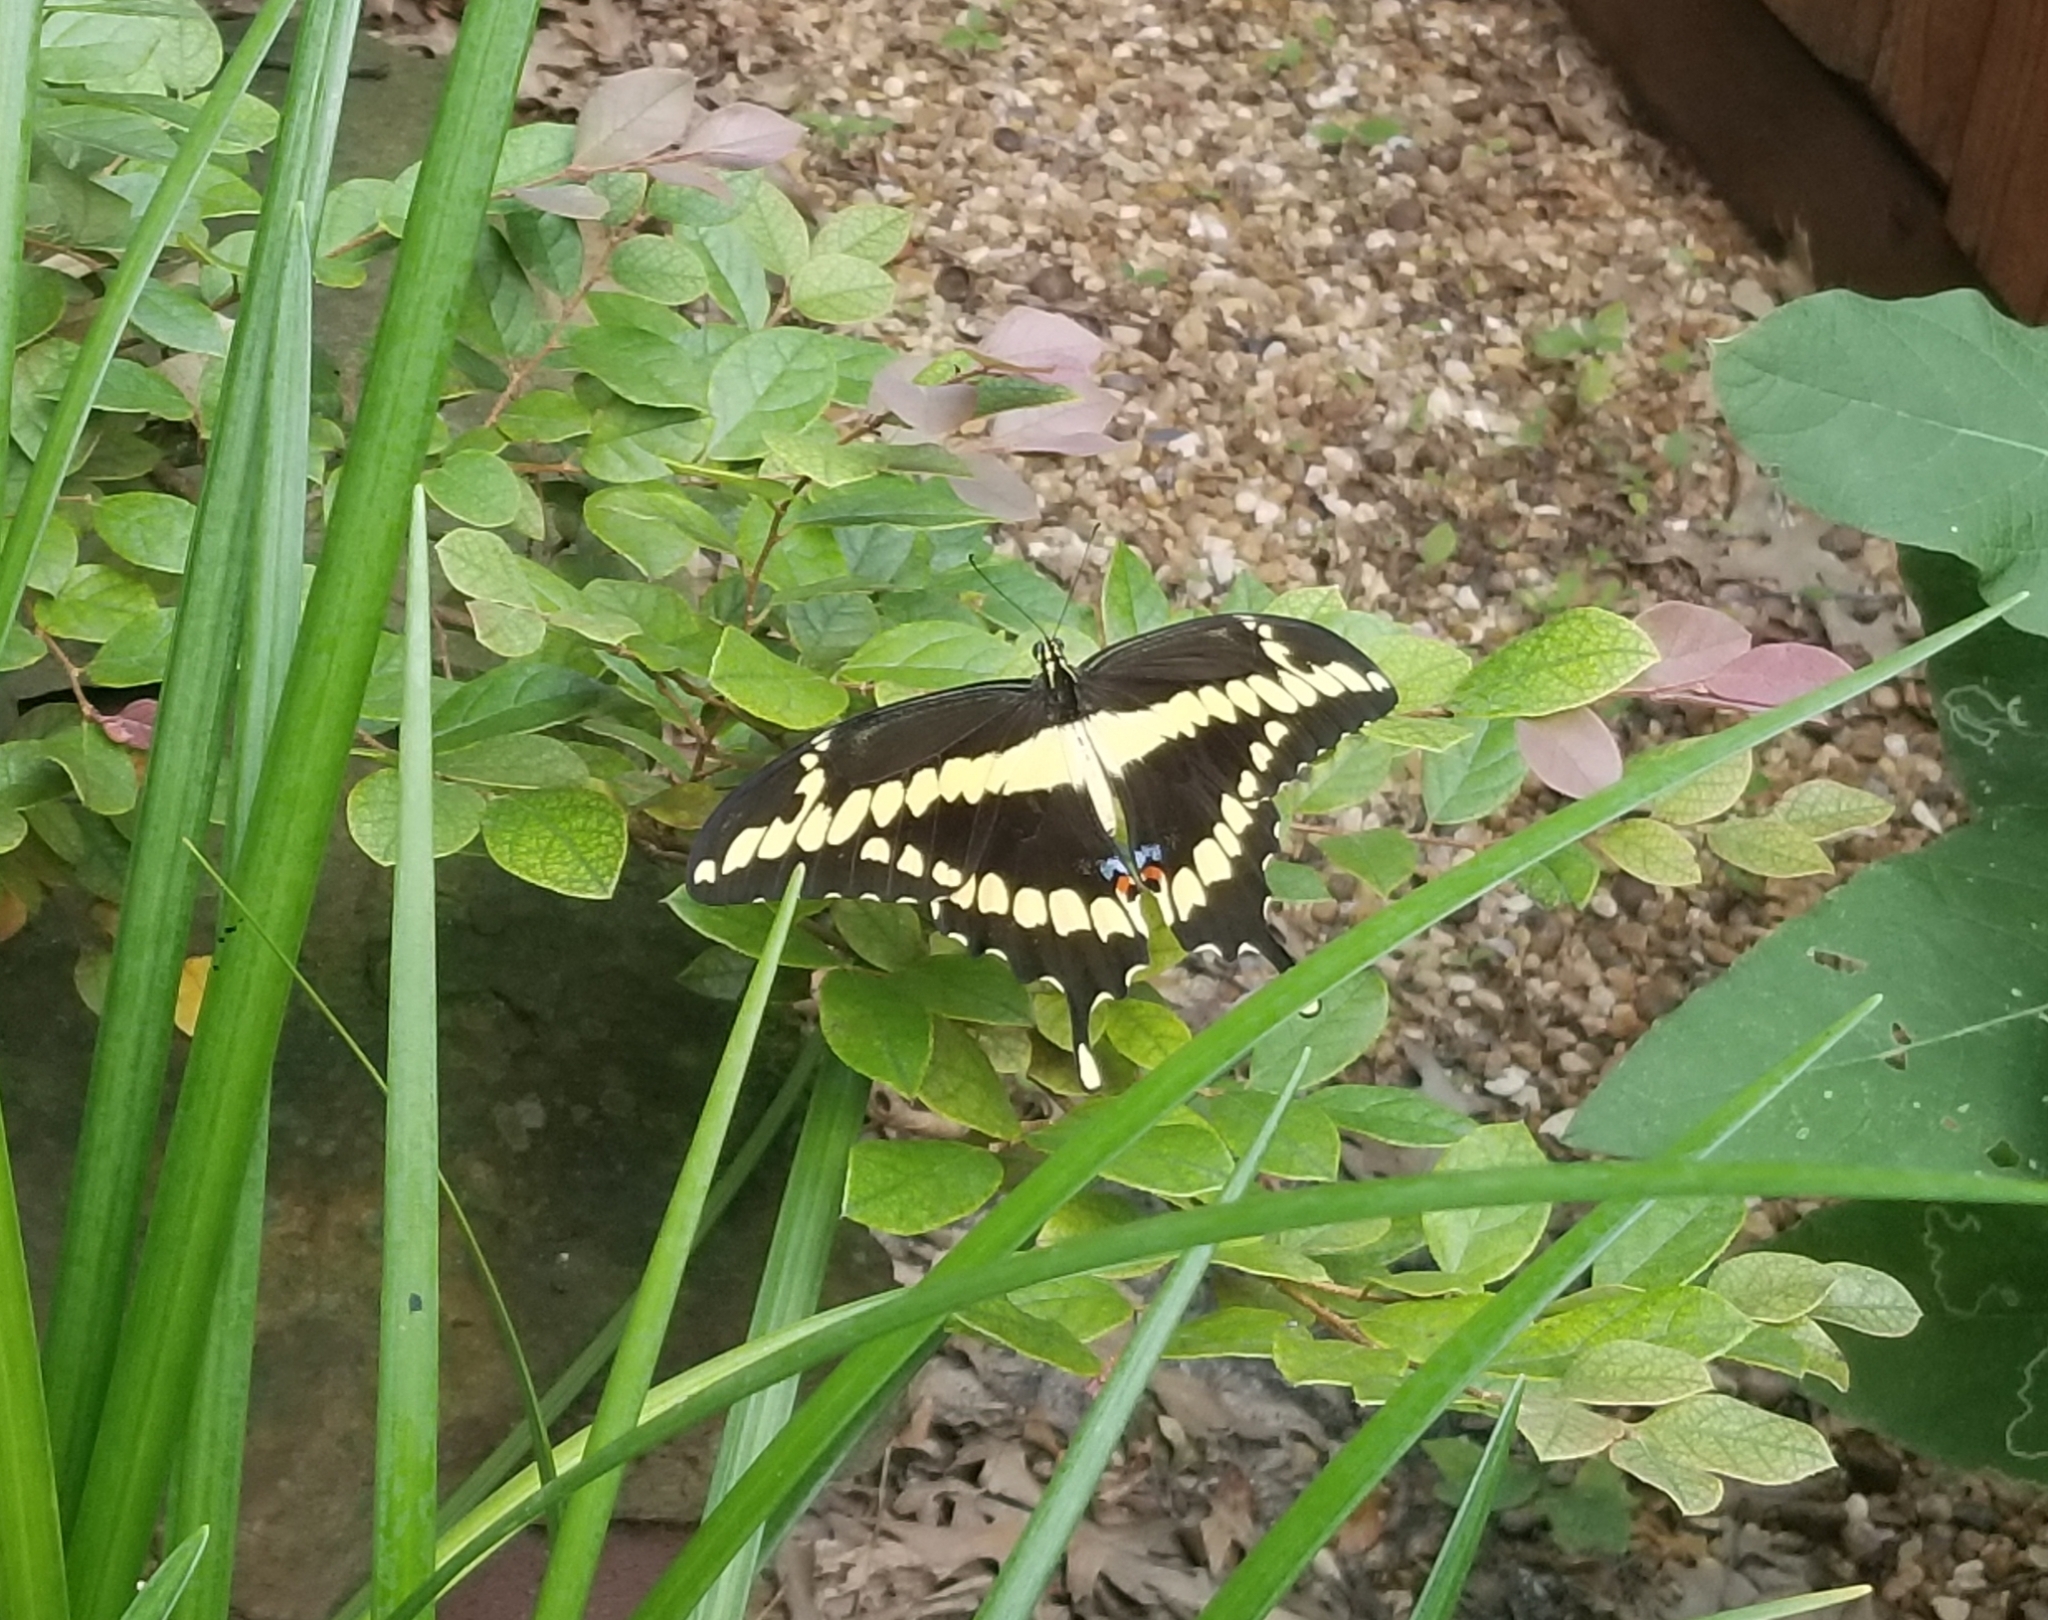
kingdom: Animalia
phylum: Arthropoda
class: Insecta
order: Lepidoptera
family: Papilionidae
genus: Papilio
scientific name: Papilio rumiko
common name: Western giant swallowtail
